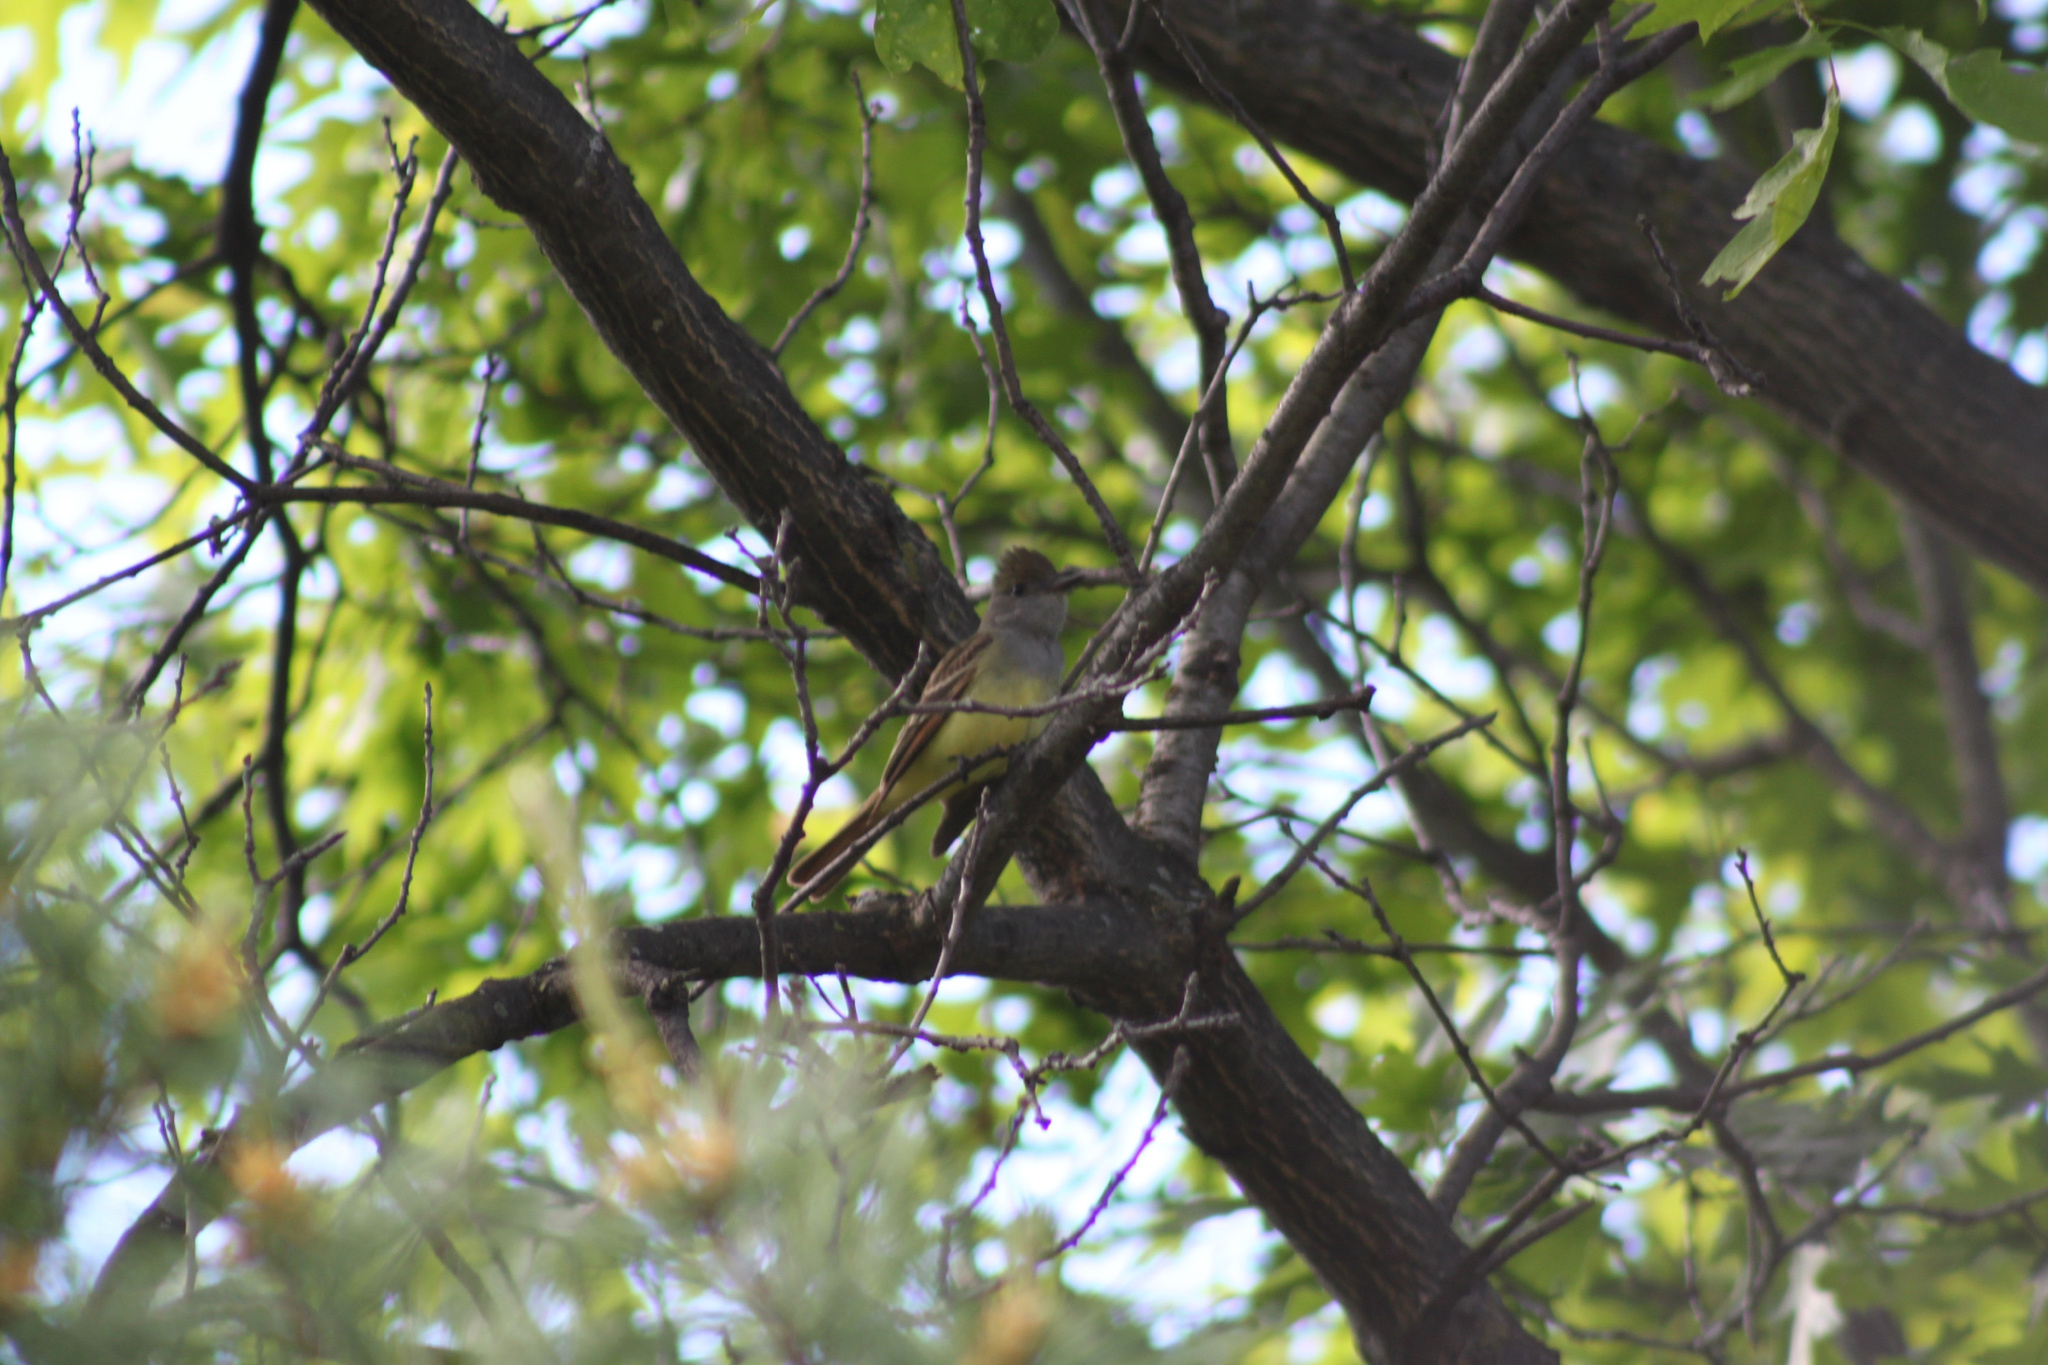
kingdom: Animalia
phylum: Chordata
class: Aves
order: Passeriformes
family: Tyrannidae
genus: Myiarchus
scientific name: Myiarchus crinitus
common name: Great crested flycatcher
